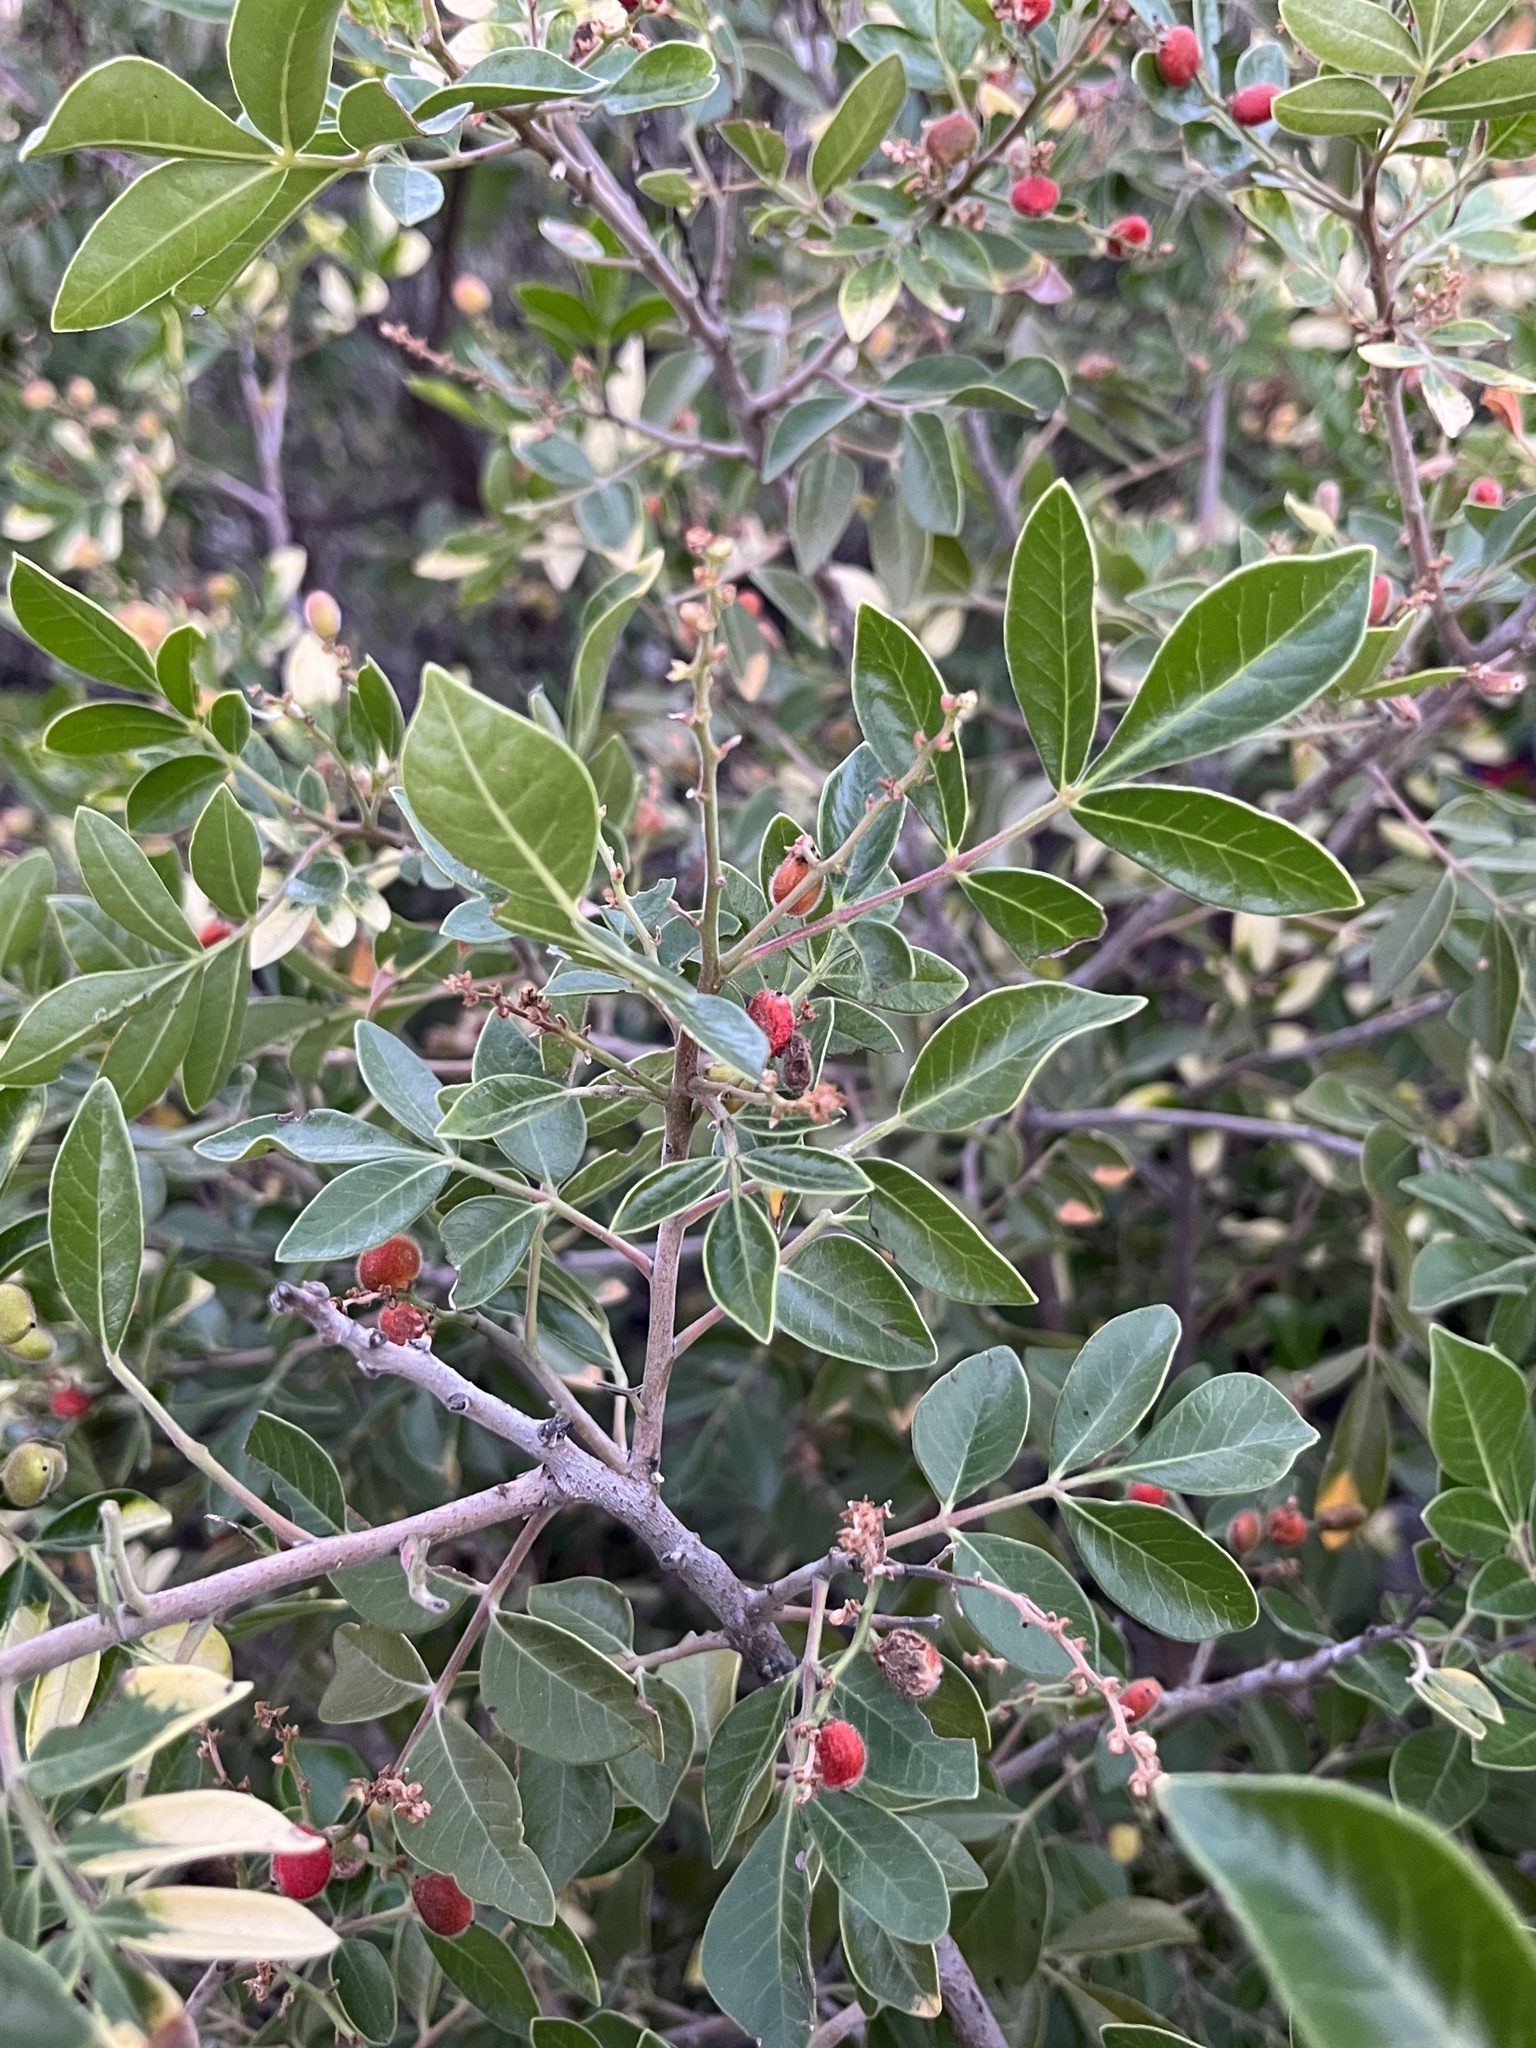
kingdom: Plantae
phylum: Tracheophyta
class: Magnoliopsida
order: Sapindales
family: Anacardiaceae
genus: Rhus
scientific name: Rhus virens
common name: Evergreen sumac
